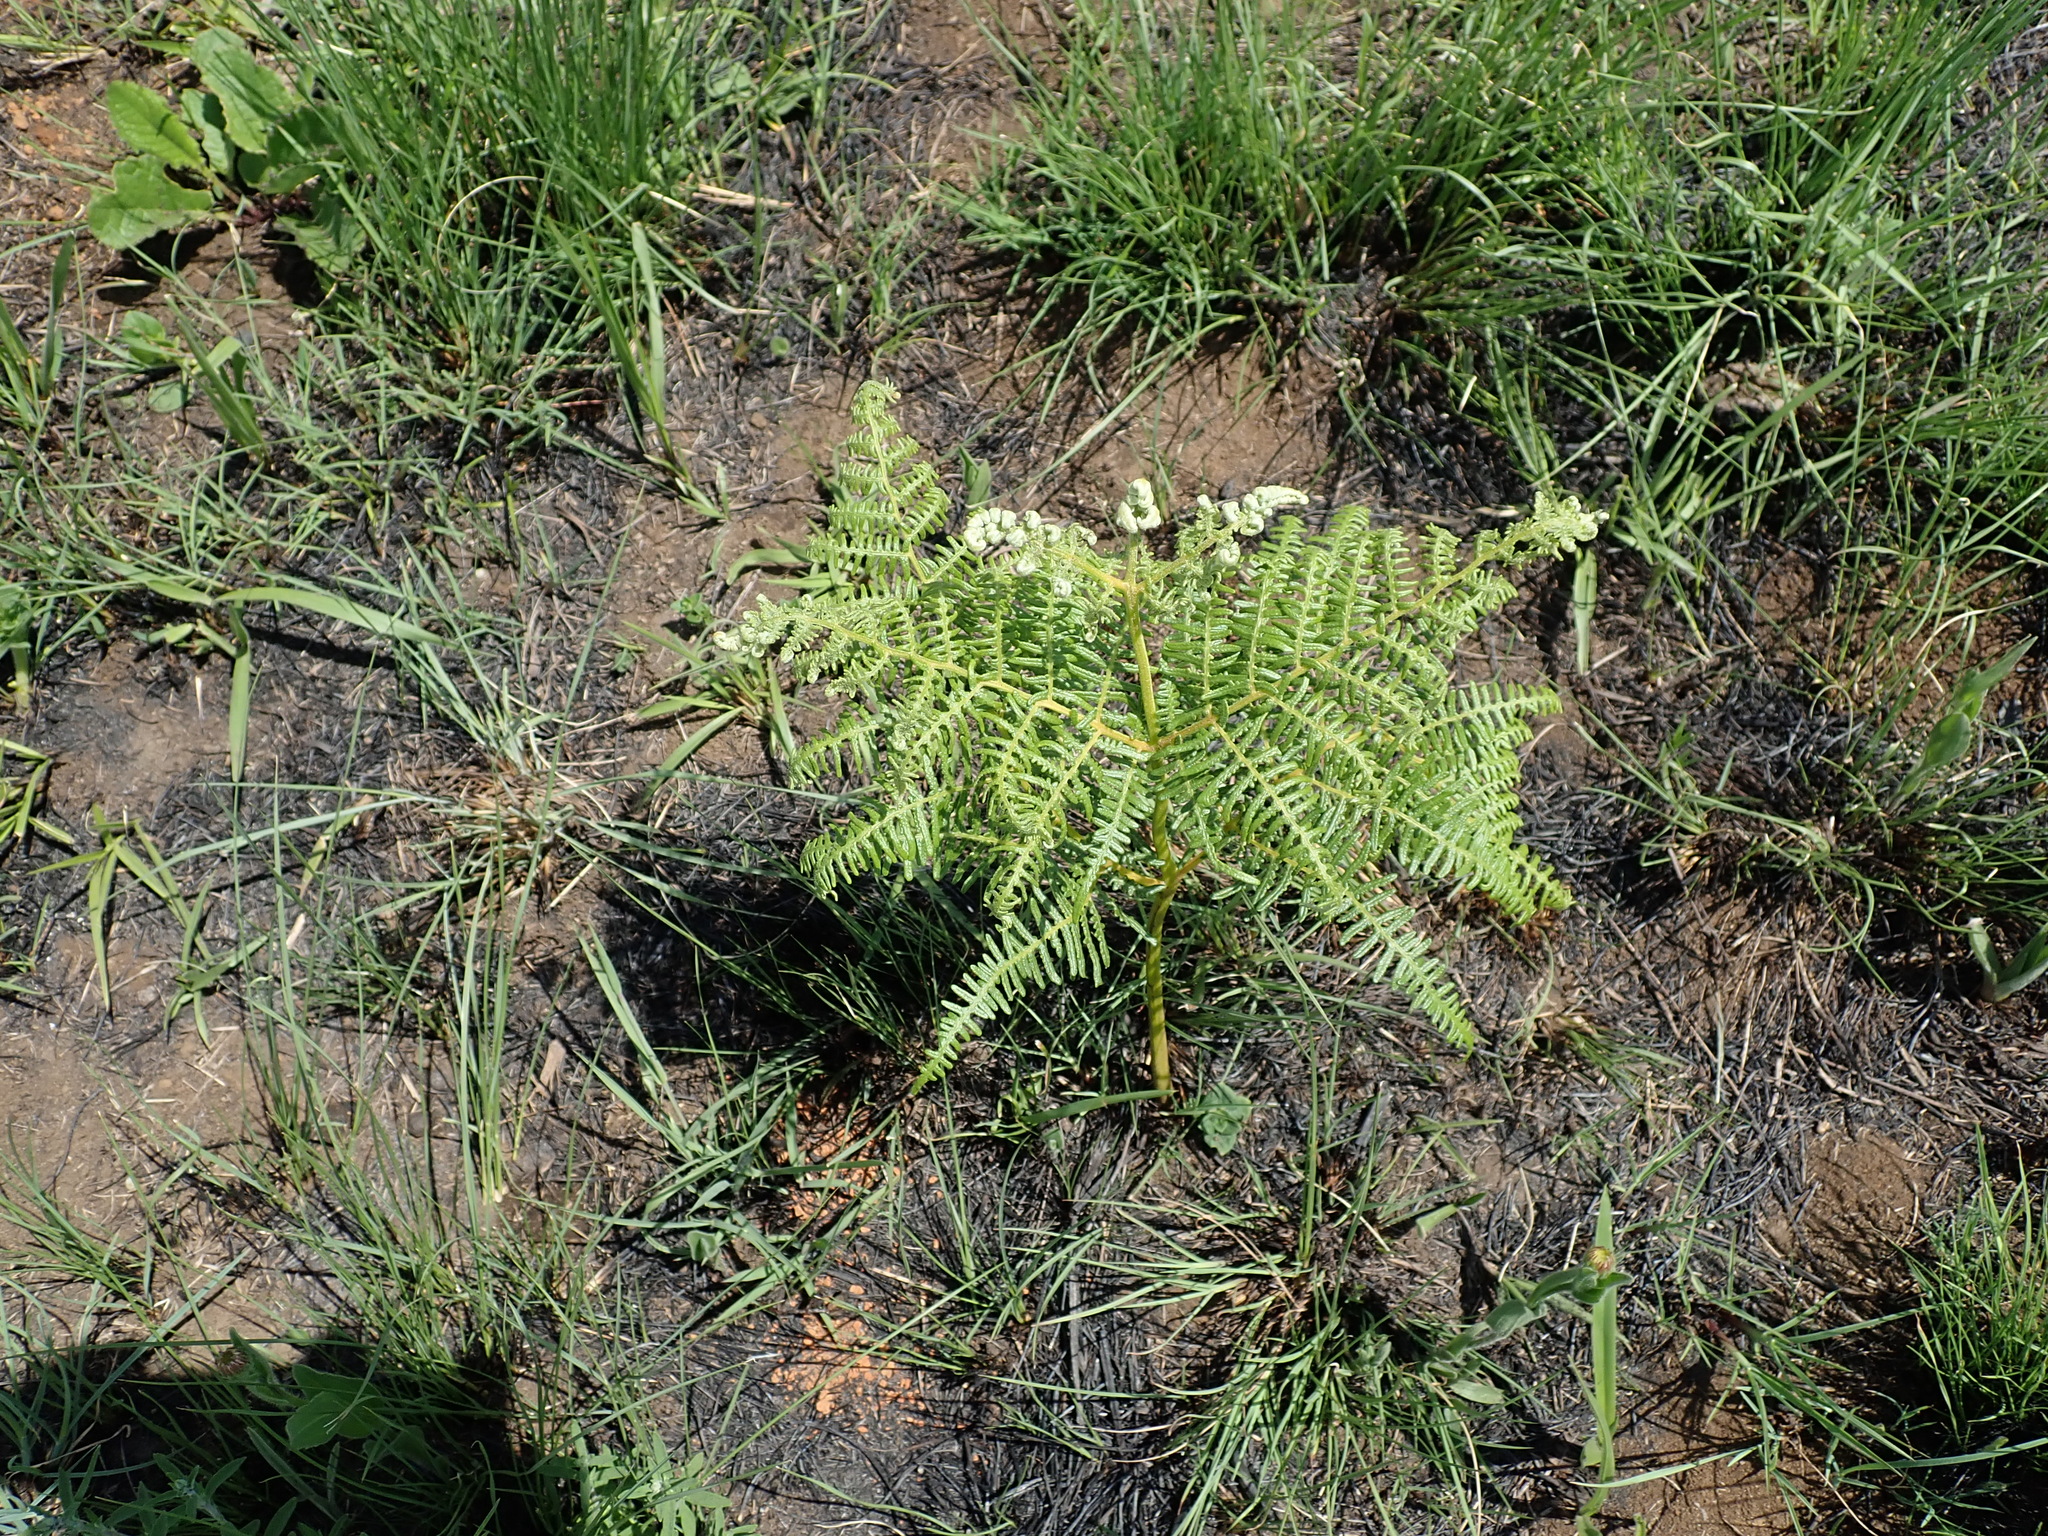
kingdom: Plantae
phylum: Tracheophyta
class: Polypodiopsida
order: Polypodiales
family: Dennstaedtiaceae
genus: Pteridium
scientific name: Pteridium aquilinum
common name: Bracken
